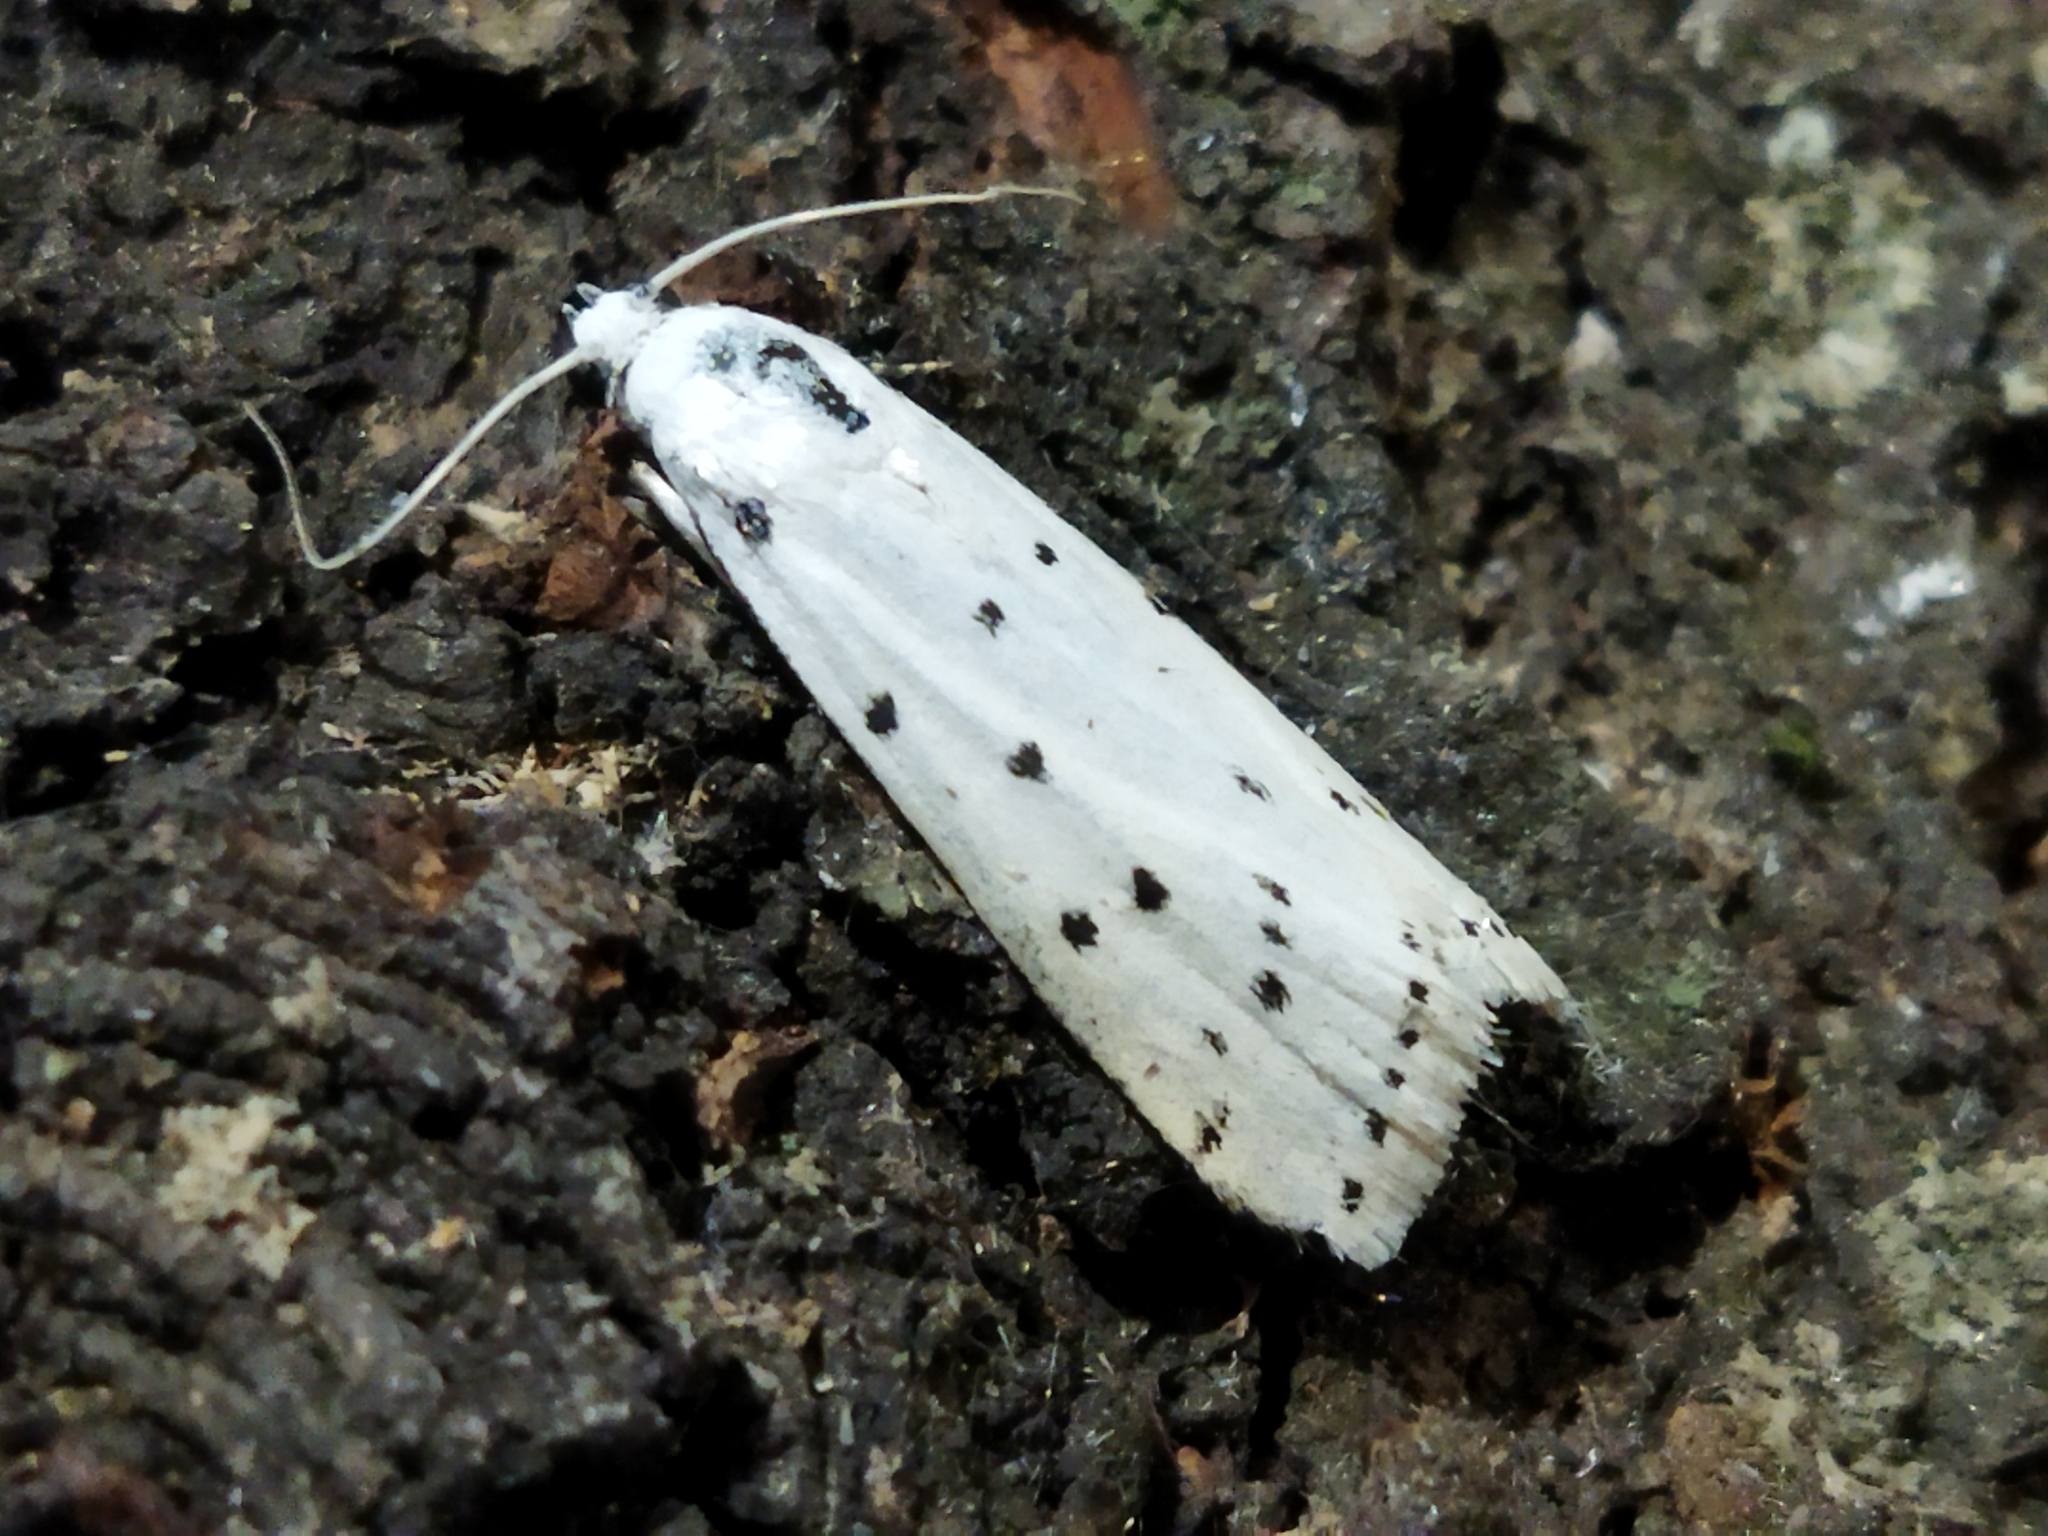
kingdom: Animalia
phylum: Arthropoda
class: Insecta
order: Lepidoptera
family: Pyralidae
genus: Myelois
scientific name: Myelois circumvoluta
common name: Thistle ermine
